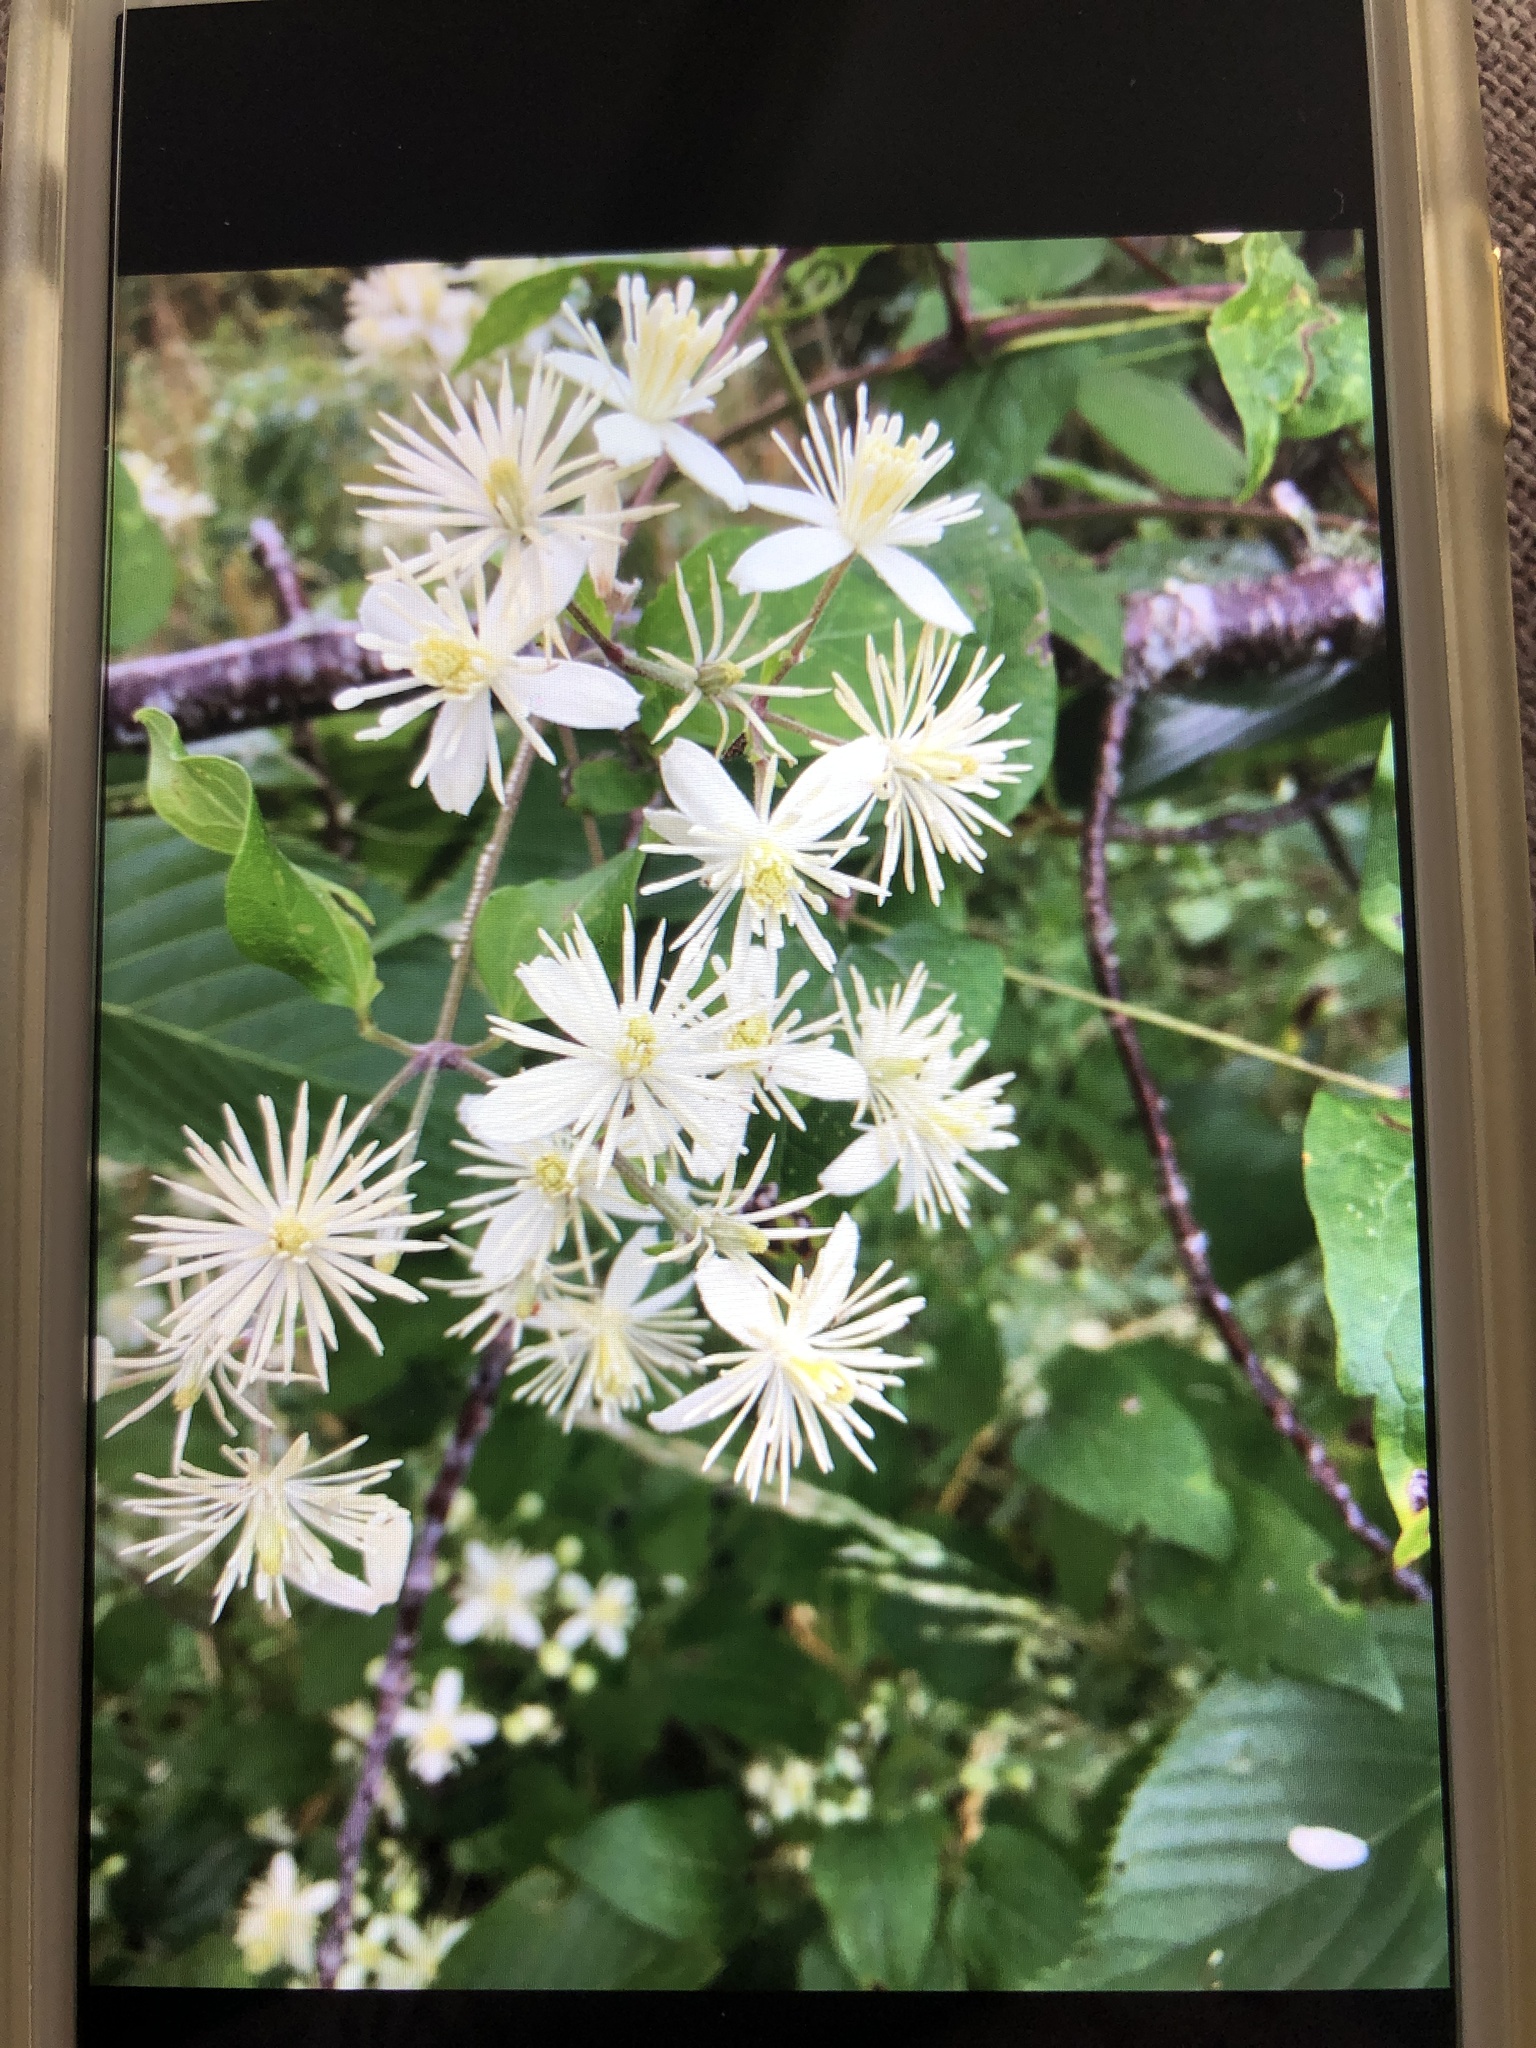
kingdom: Plantae
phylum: Tracheophyta
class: Magnoliopsida
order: Ranunculales
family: Ranunculaceae
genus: Clematis
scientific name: Clematis vitalba
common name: Evergreen clematis
